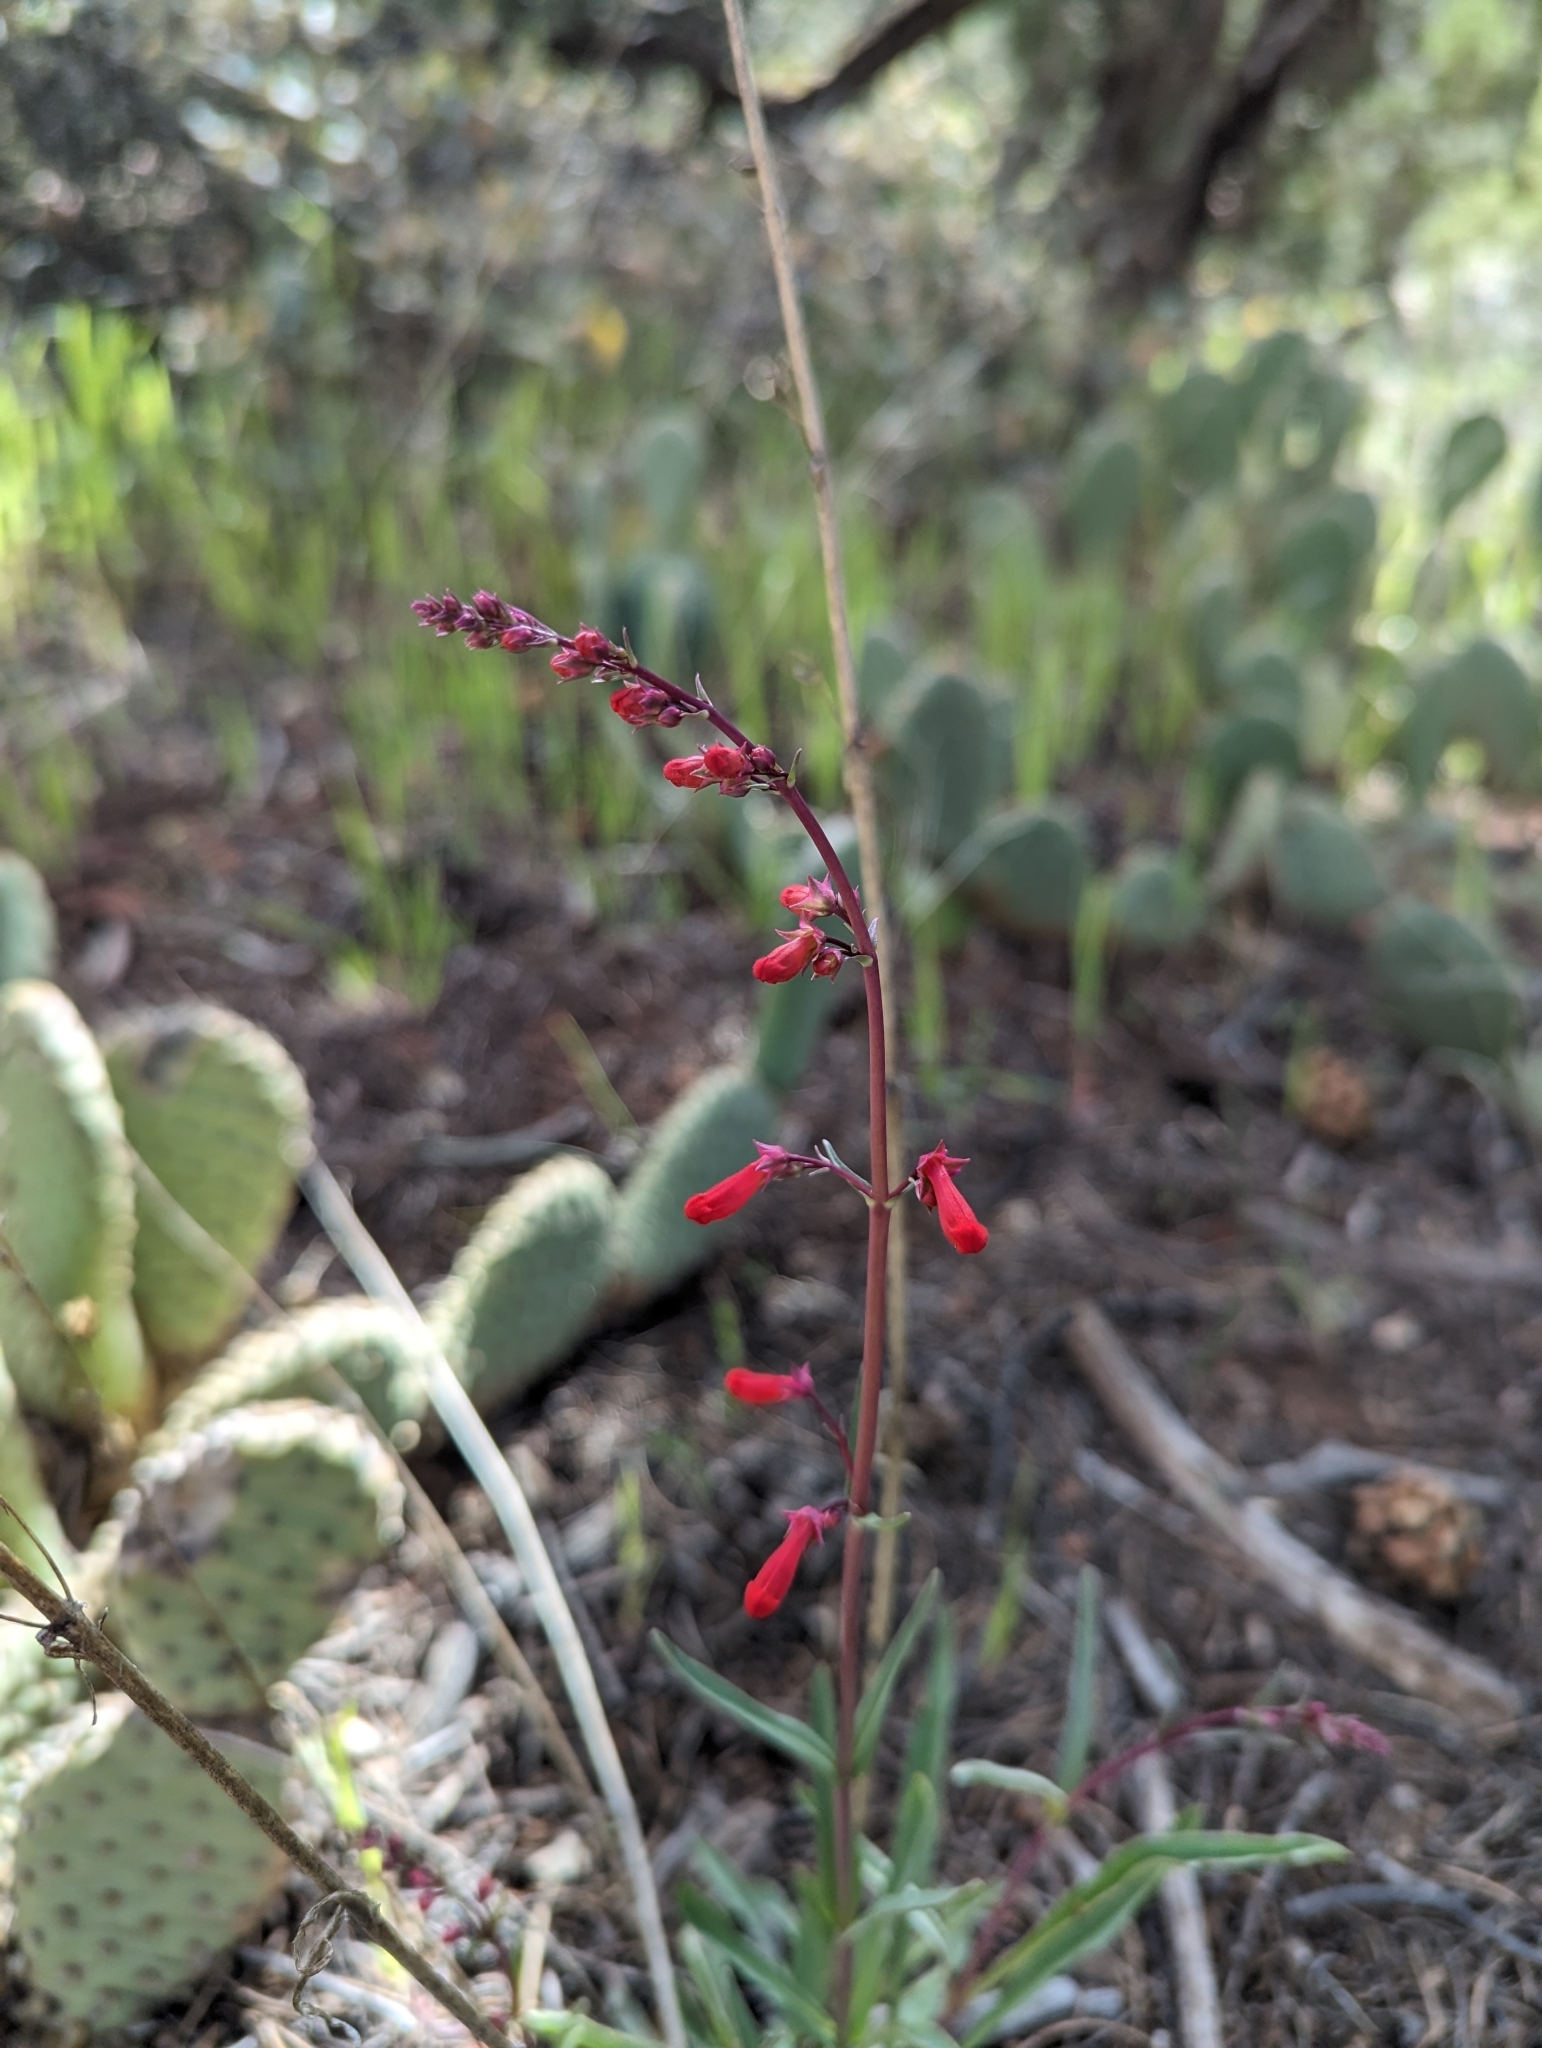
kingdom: Plantae
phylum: Tracheophyta
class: Magnoliopsida
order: Lamiales
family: Plantaginaceae
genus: Penstemon
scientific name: Penstemon utahensis
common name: Utah penstemon
